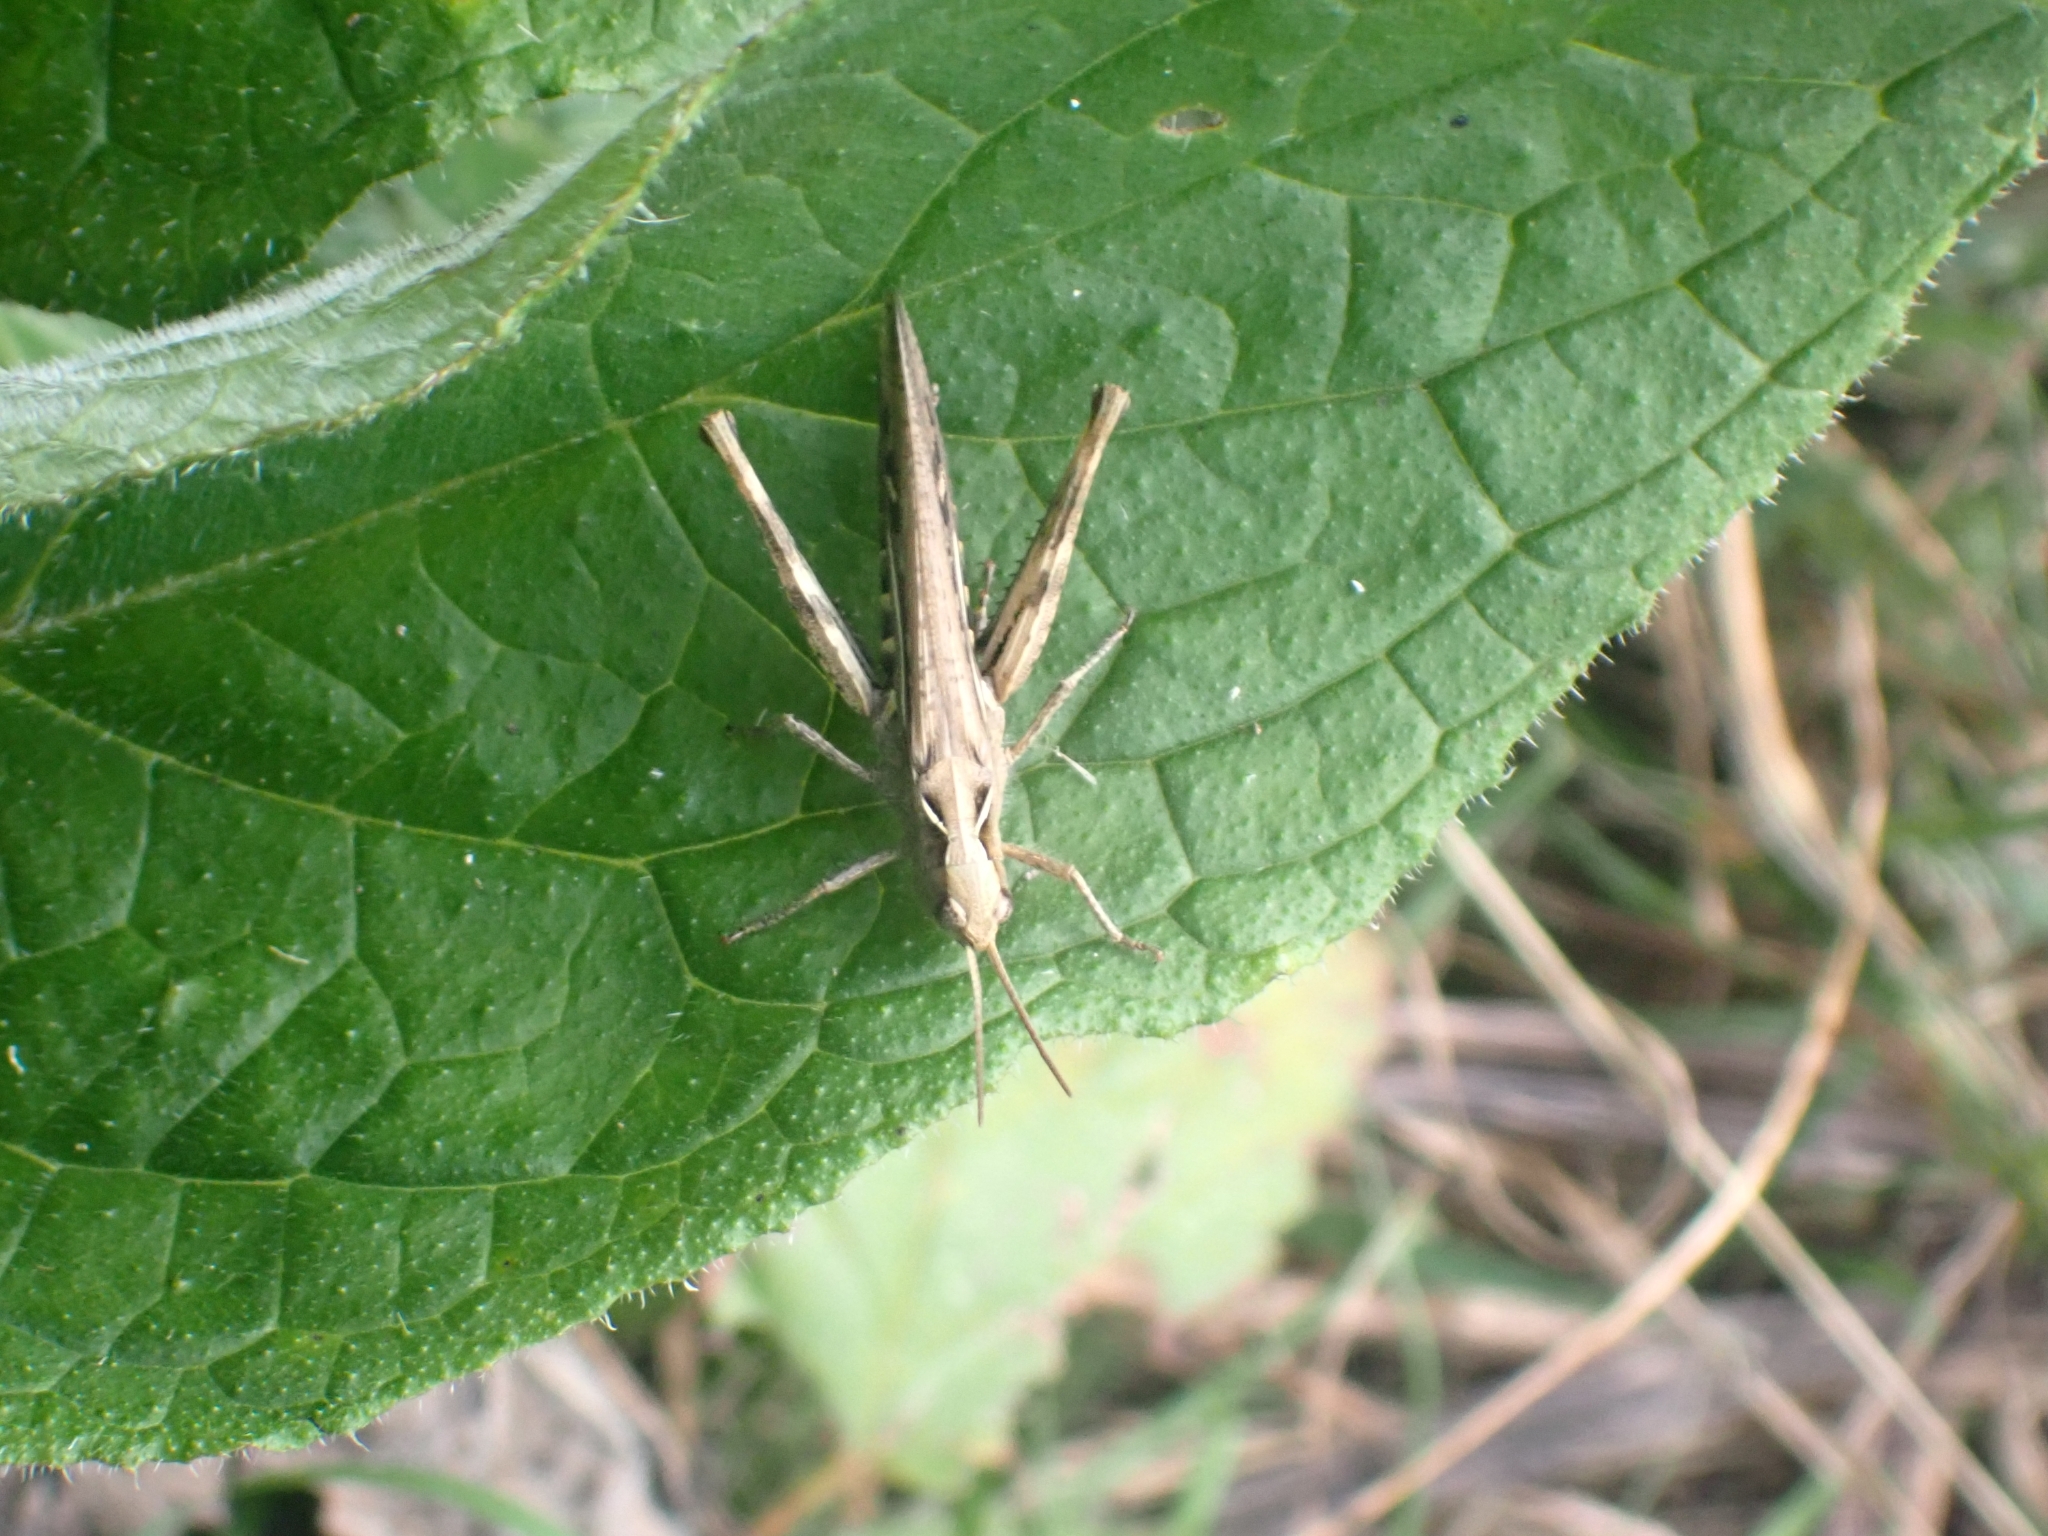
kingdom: Animalia
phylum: Arthropoda
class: Insecta
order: Orthoptera
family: Acrididae
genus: Chorthippus
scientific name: Chorthippus brunneus
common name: Field grasshopper
